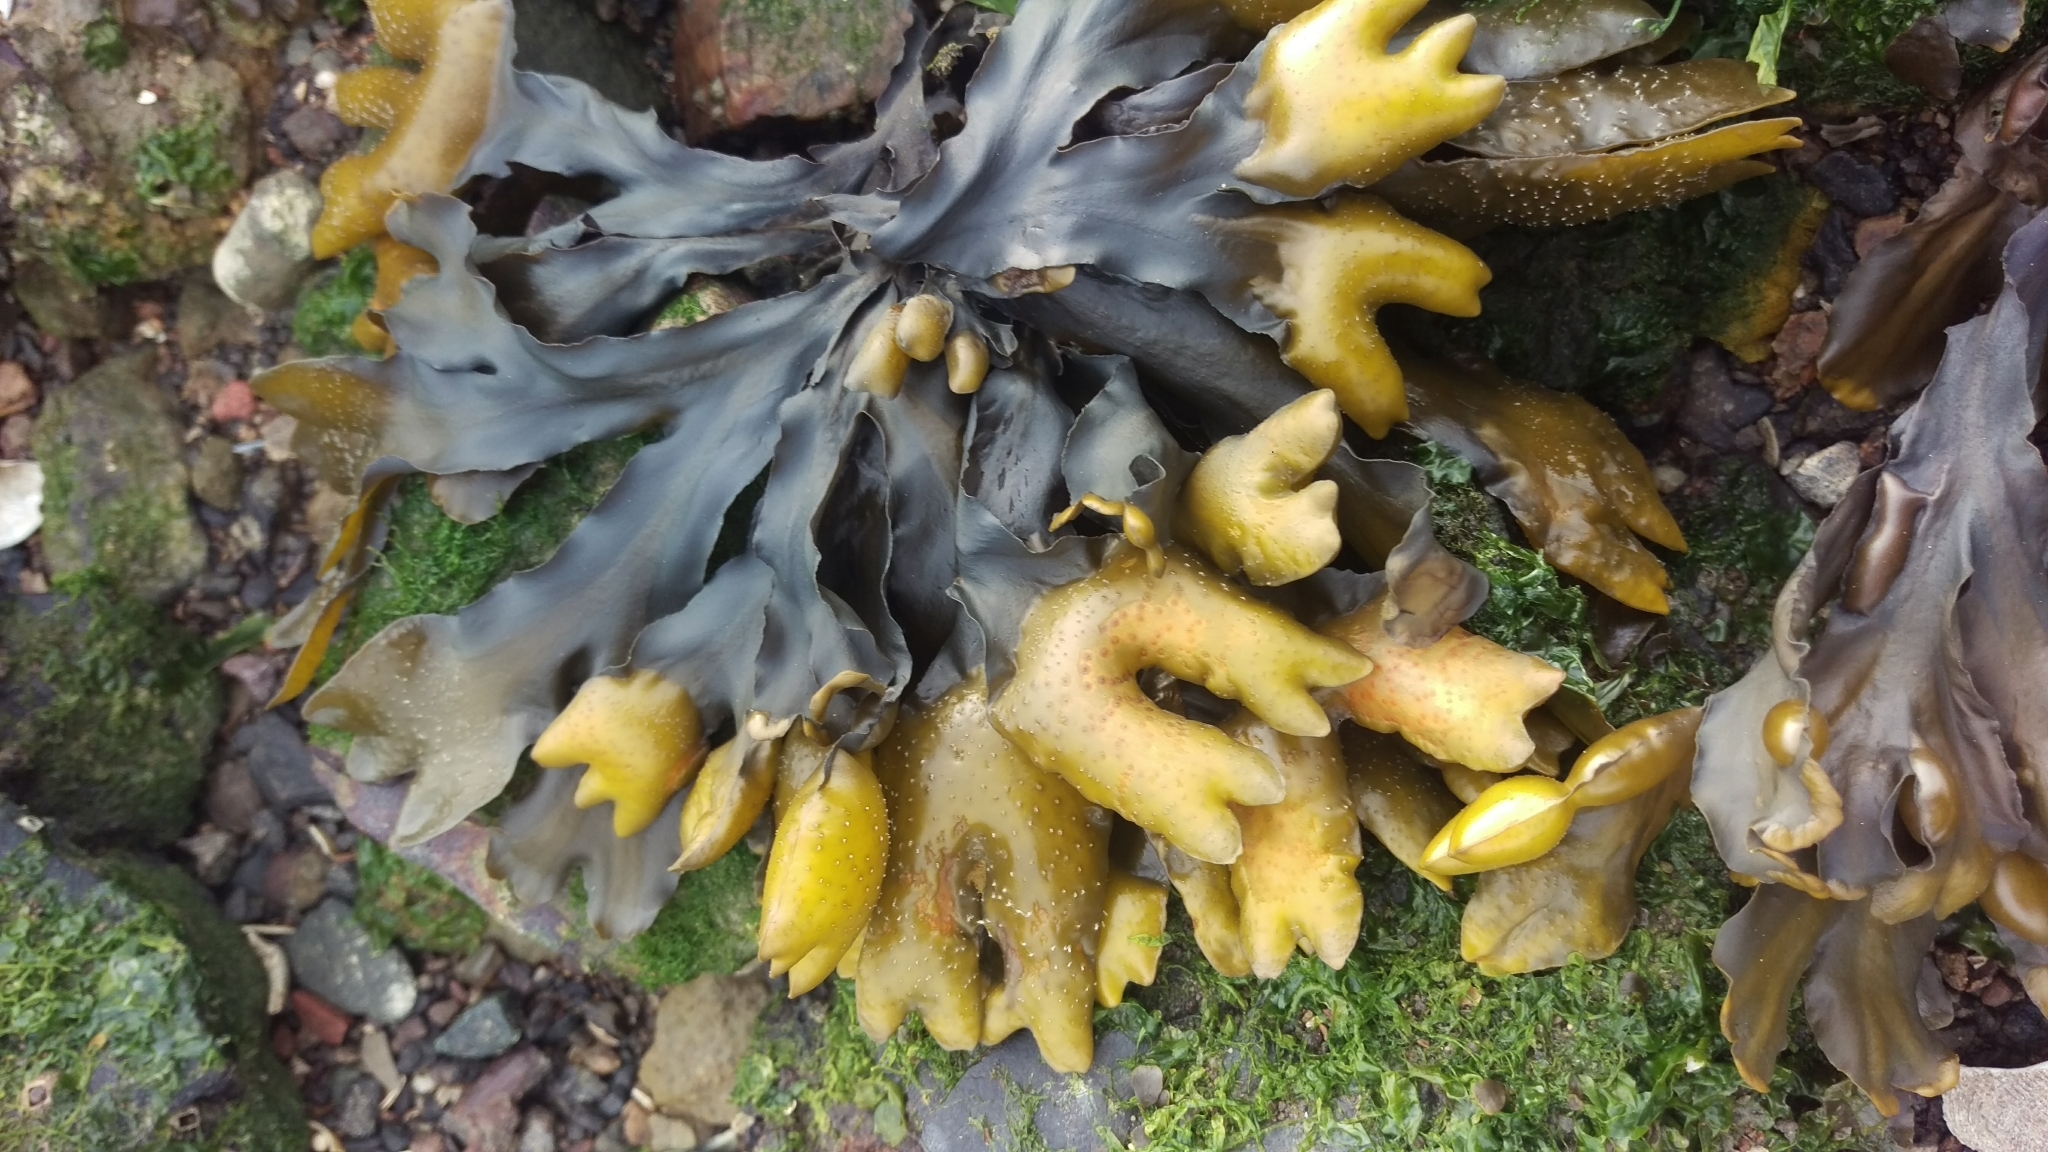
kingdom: Chromista
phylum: Ochrophyta
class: Phaeophyceae
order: Fucales
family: Fucaceae
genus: Fucus
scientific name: Fucus distichus
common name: Rockweed
